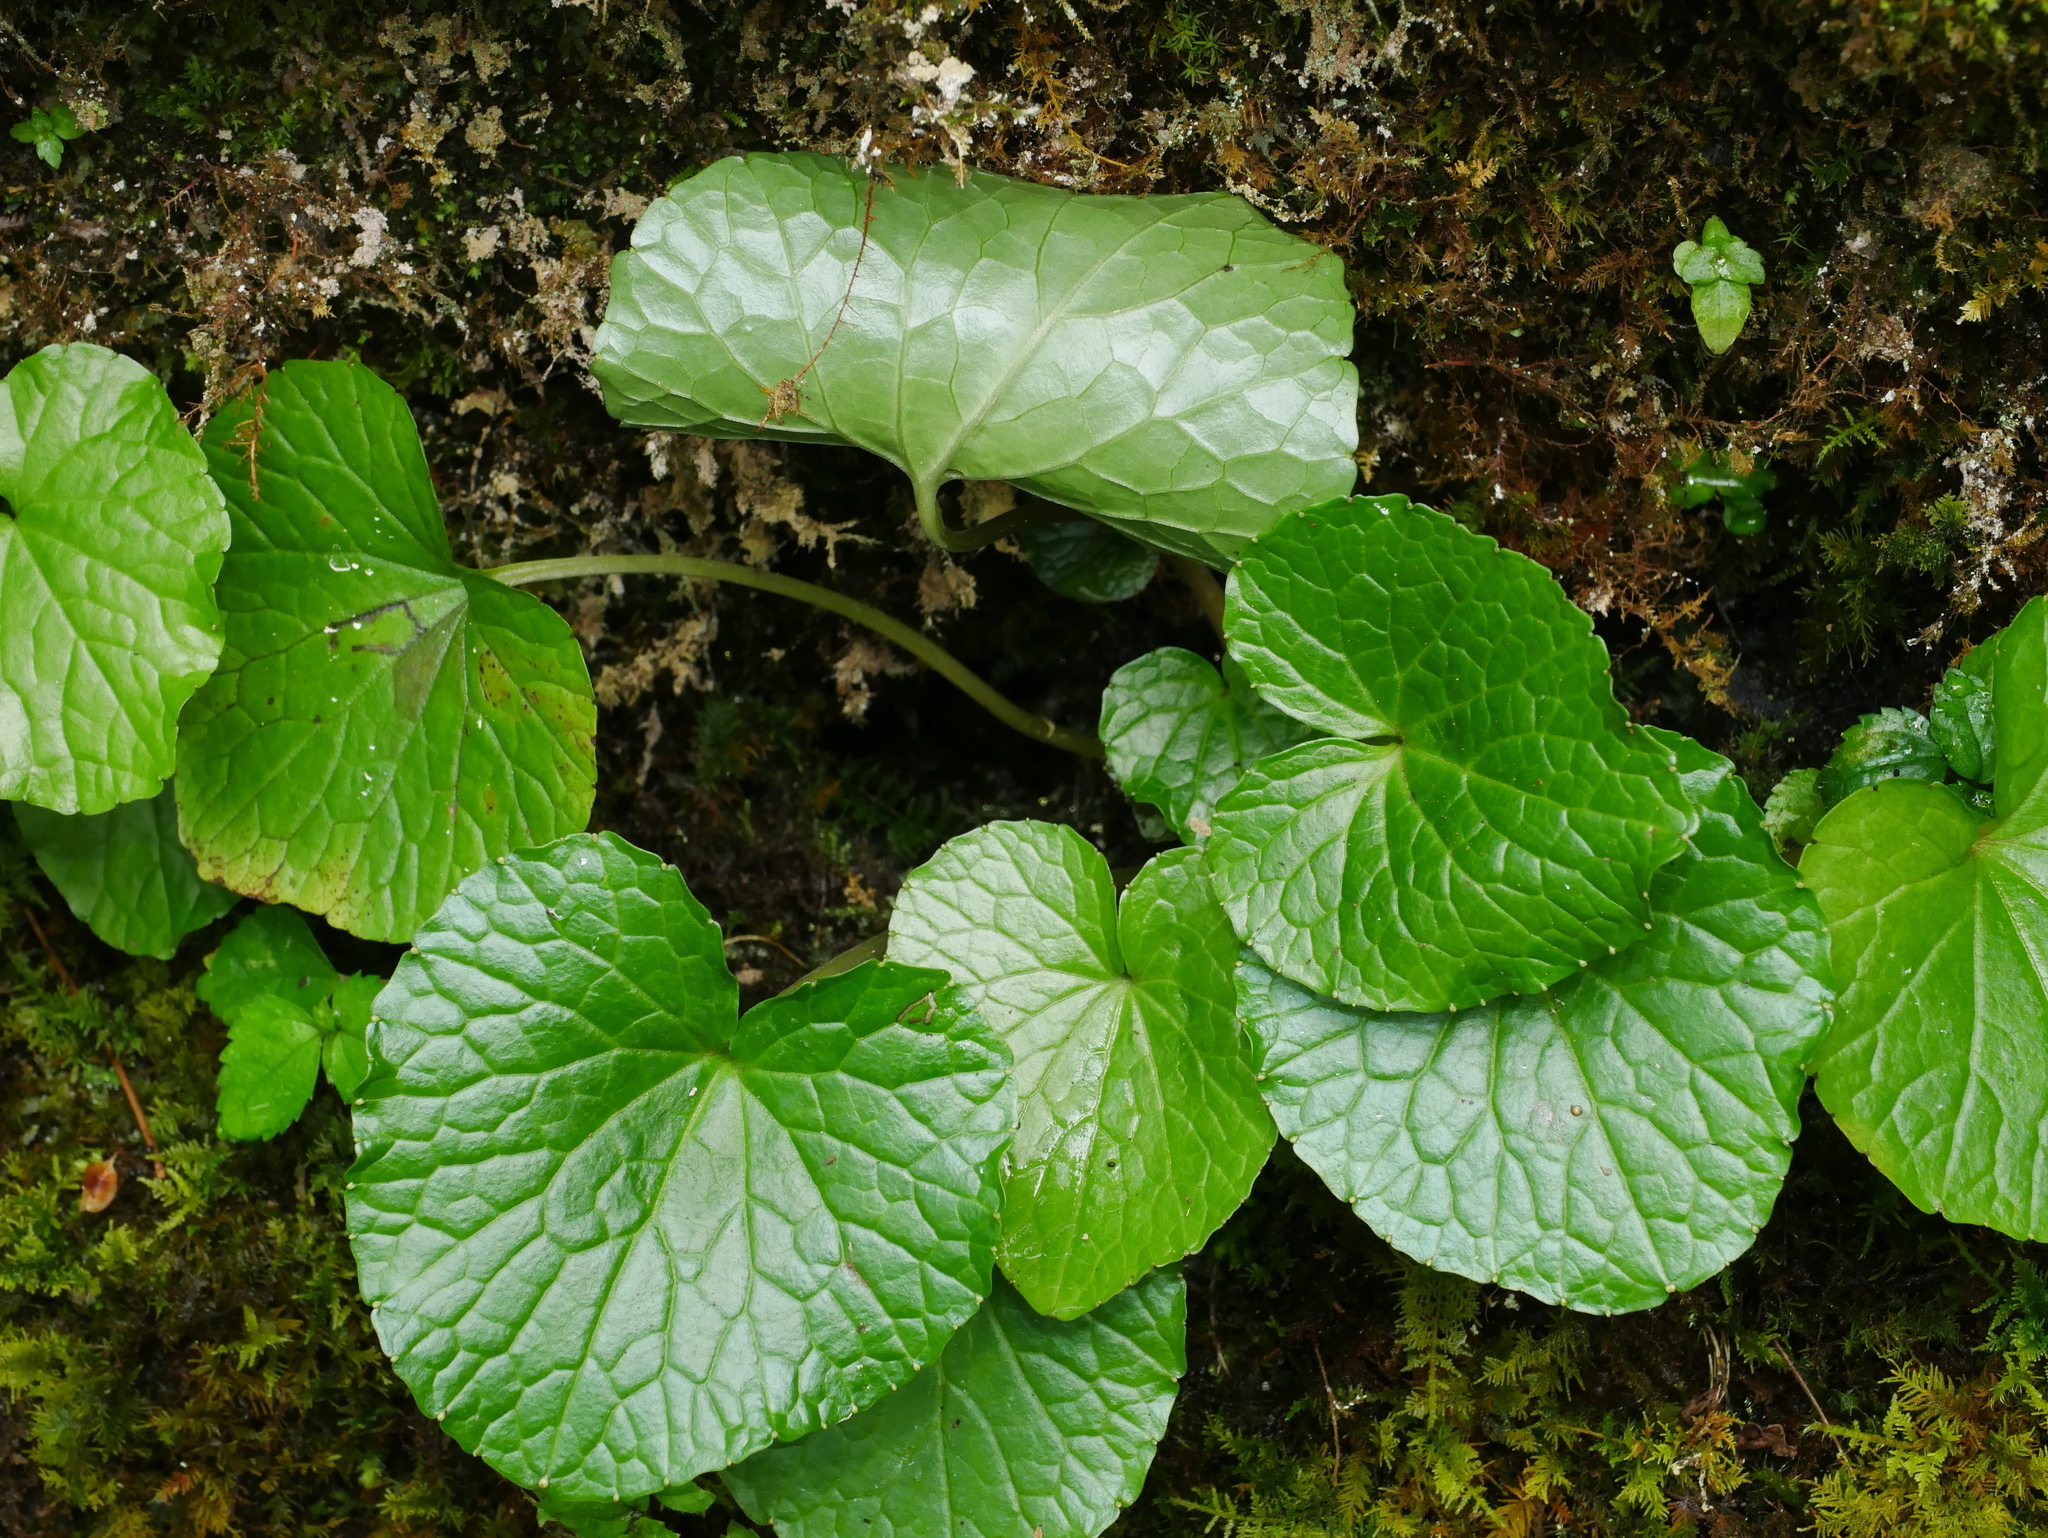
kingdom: Plantae
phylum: Tracheophyta
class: Magnoliopsida
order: Brassicales
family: Brassicaceae
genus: Eutrema
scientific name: Eutrema japonicum
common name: Japanese-horseradish
